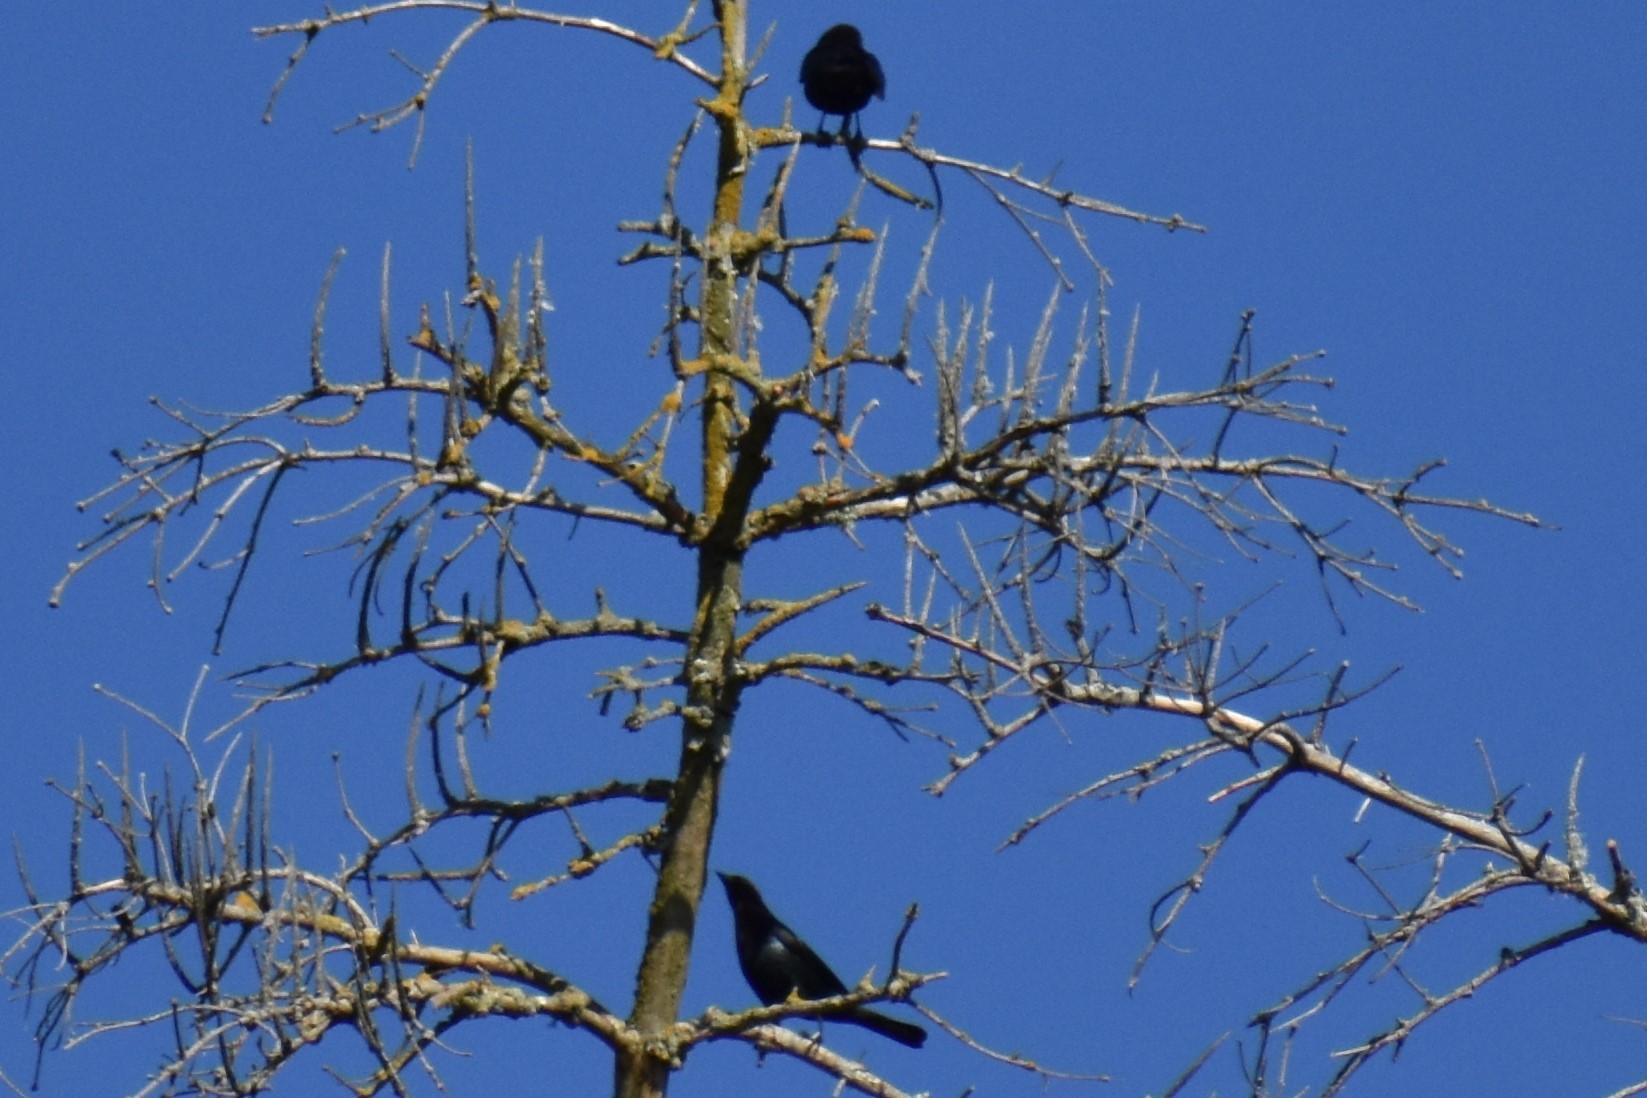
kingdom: Animalia
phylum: Chordata
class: Aves
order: Passeriformes
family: Icteridae
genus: Molothrus
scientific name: Molothrus ater
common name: Brown-headed cowbird
